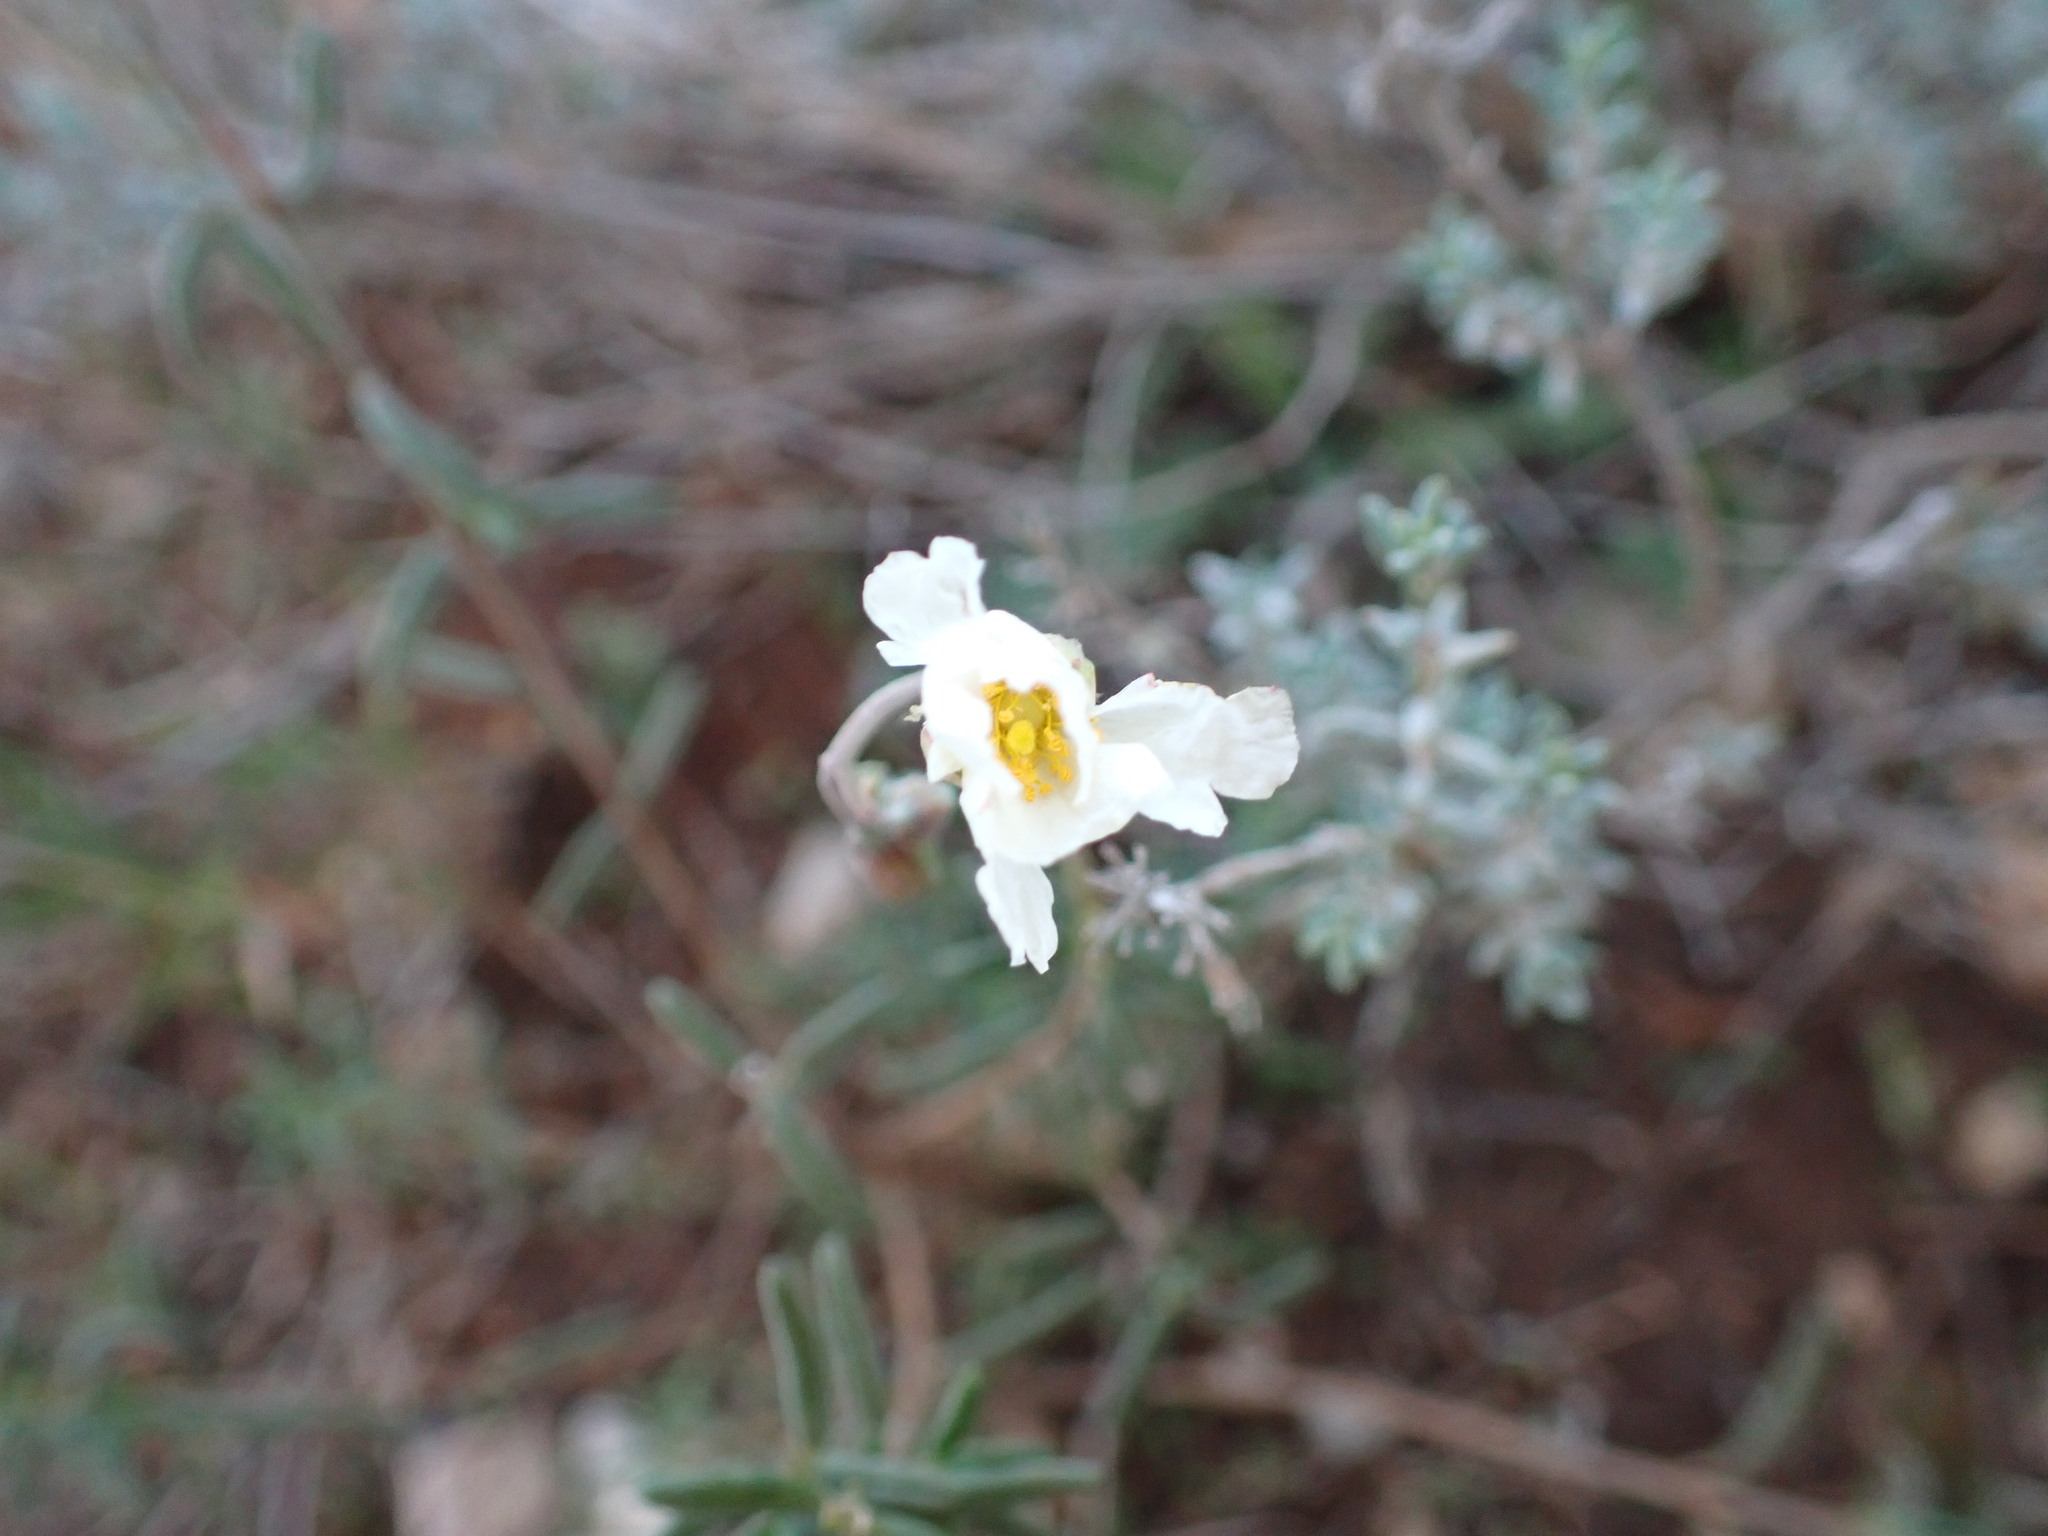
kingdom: Plantae
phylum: Tracheophyta
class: Magnoliopsida
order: Malvales
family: Cistaceae
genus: Helianthemum
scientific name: Helianthemum apenninum
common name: White rock-rose
